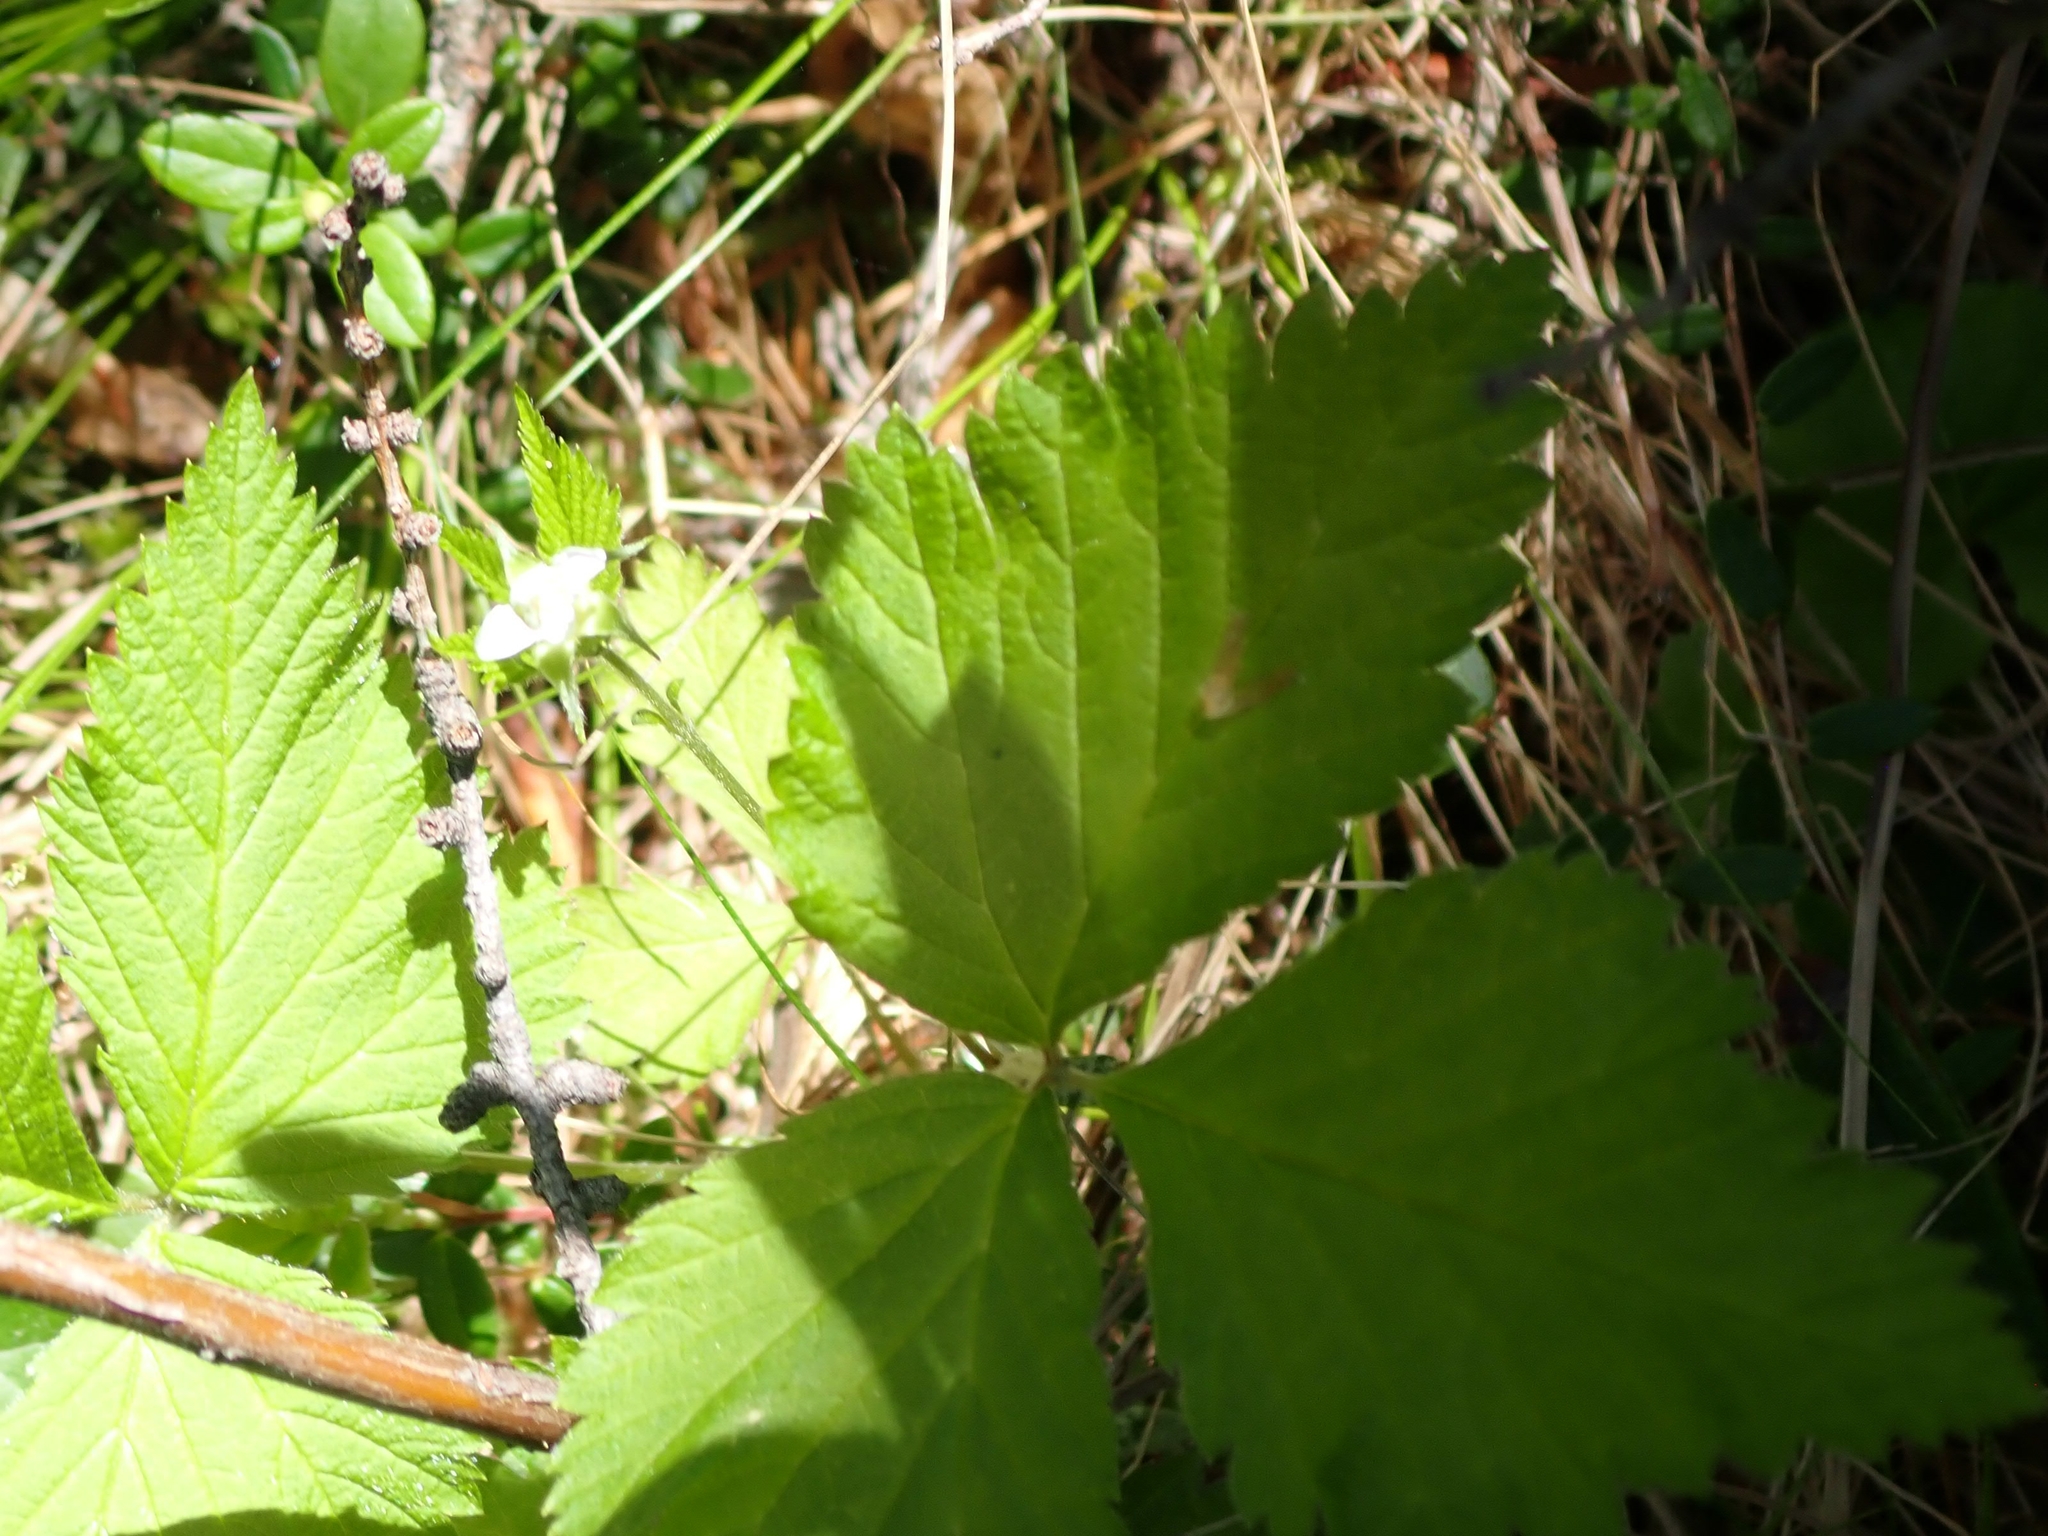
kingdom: Plantae
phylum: Tracheophyta
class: Magnoliopsida
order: Rosales
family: Rosaceae
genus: Rubus
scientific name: Rubus pubescens
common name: Dwarf raspberry
